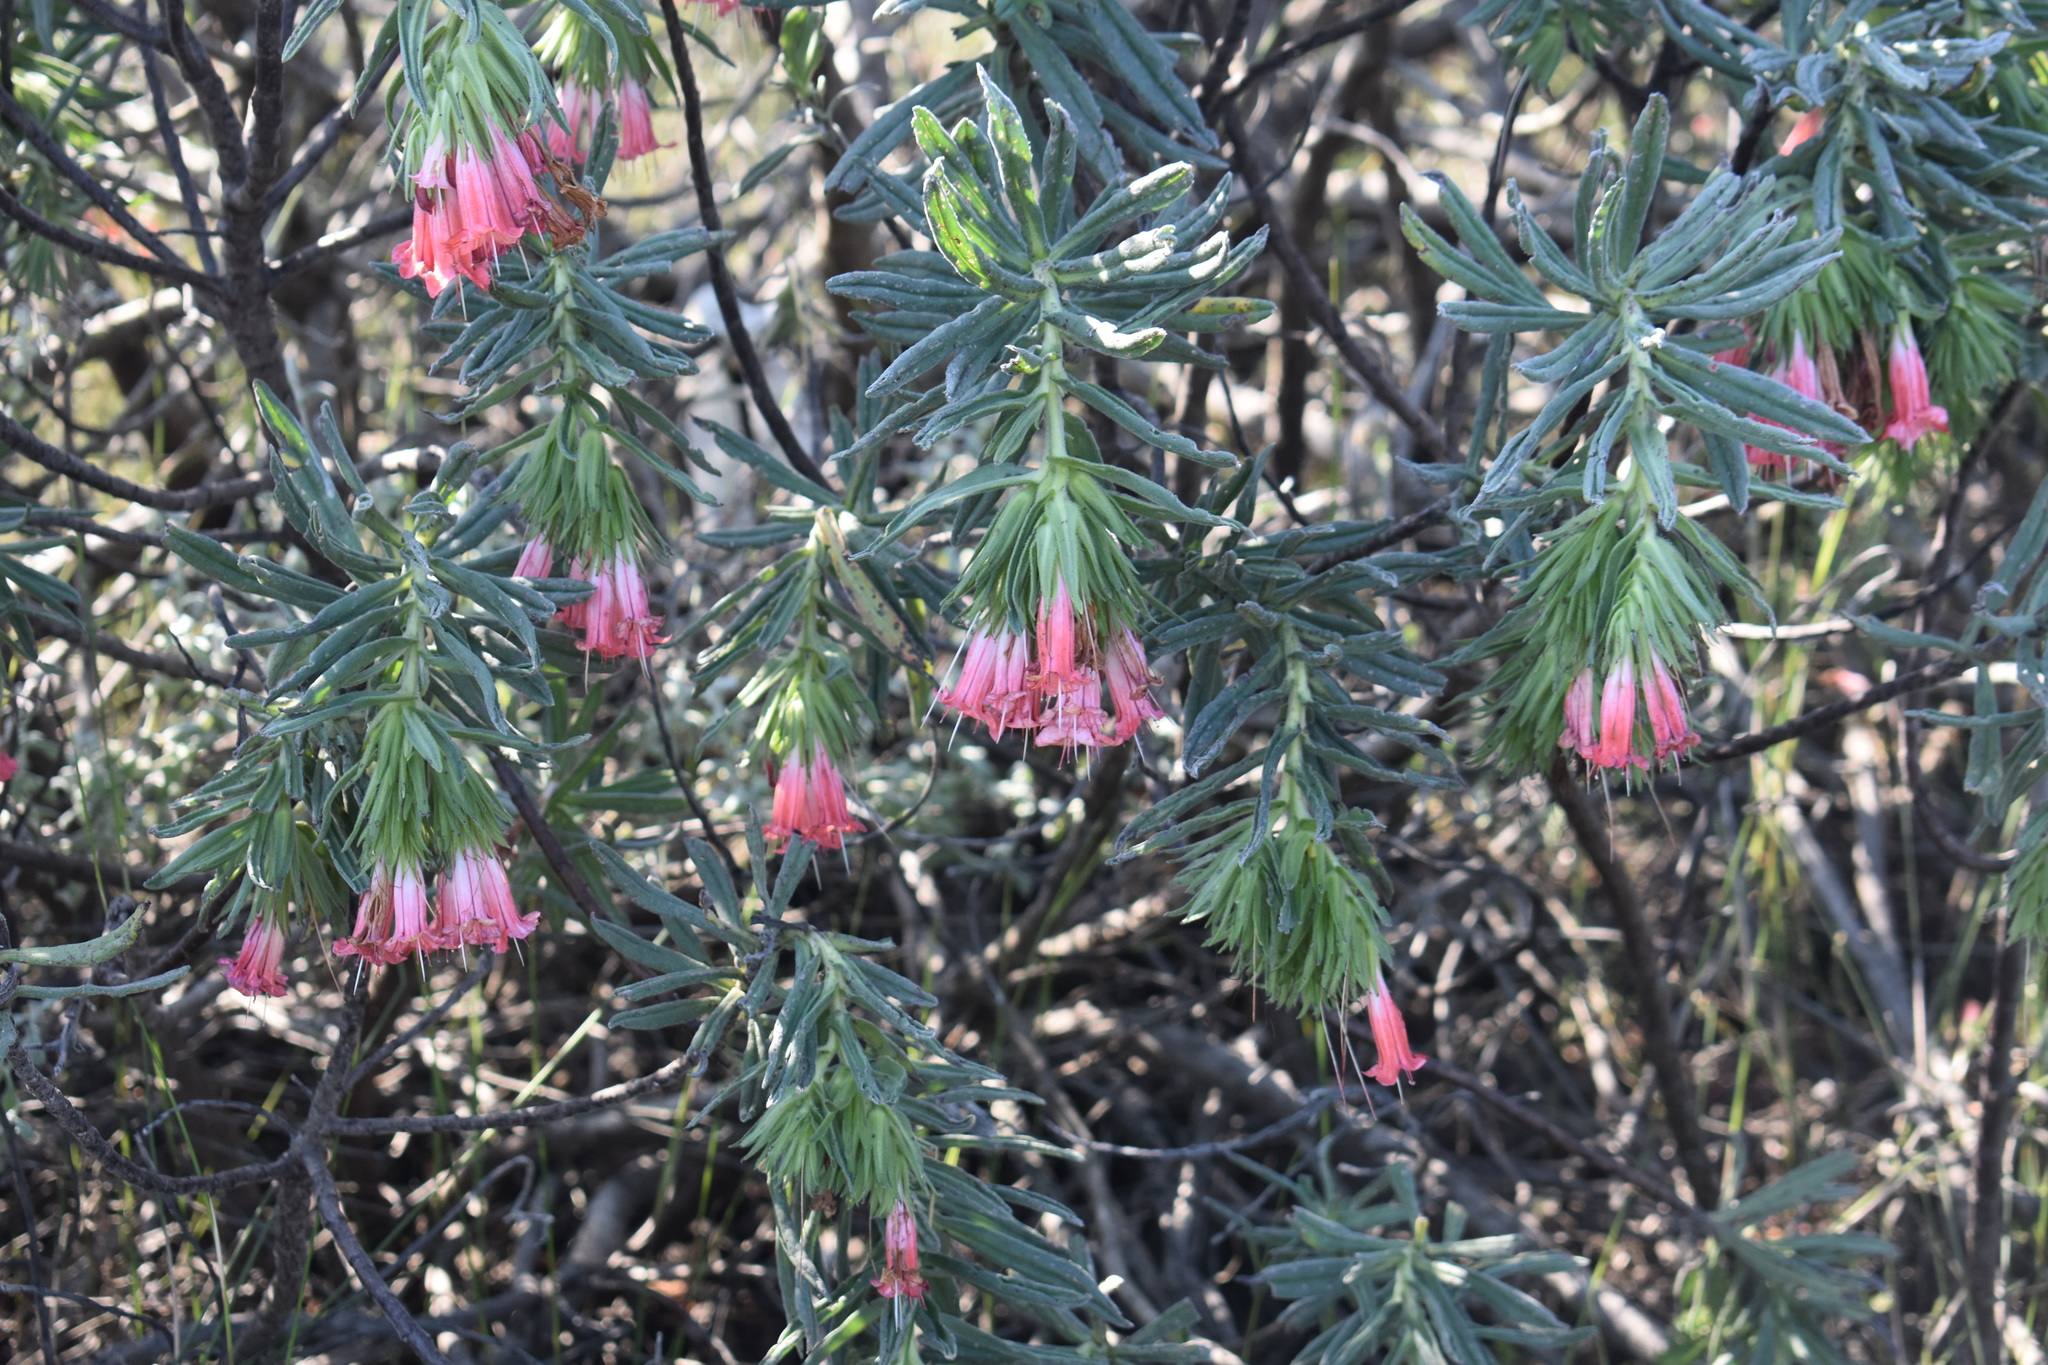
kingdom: Plantae
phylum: Tracheophyta
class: Magnoliopsida
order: Boraginales
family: Boraginaceae
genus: Lobostemon
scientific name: Lobostemon belliformis
